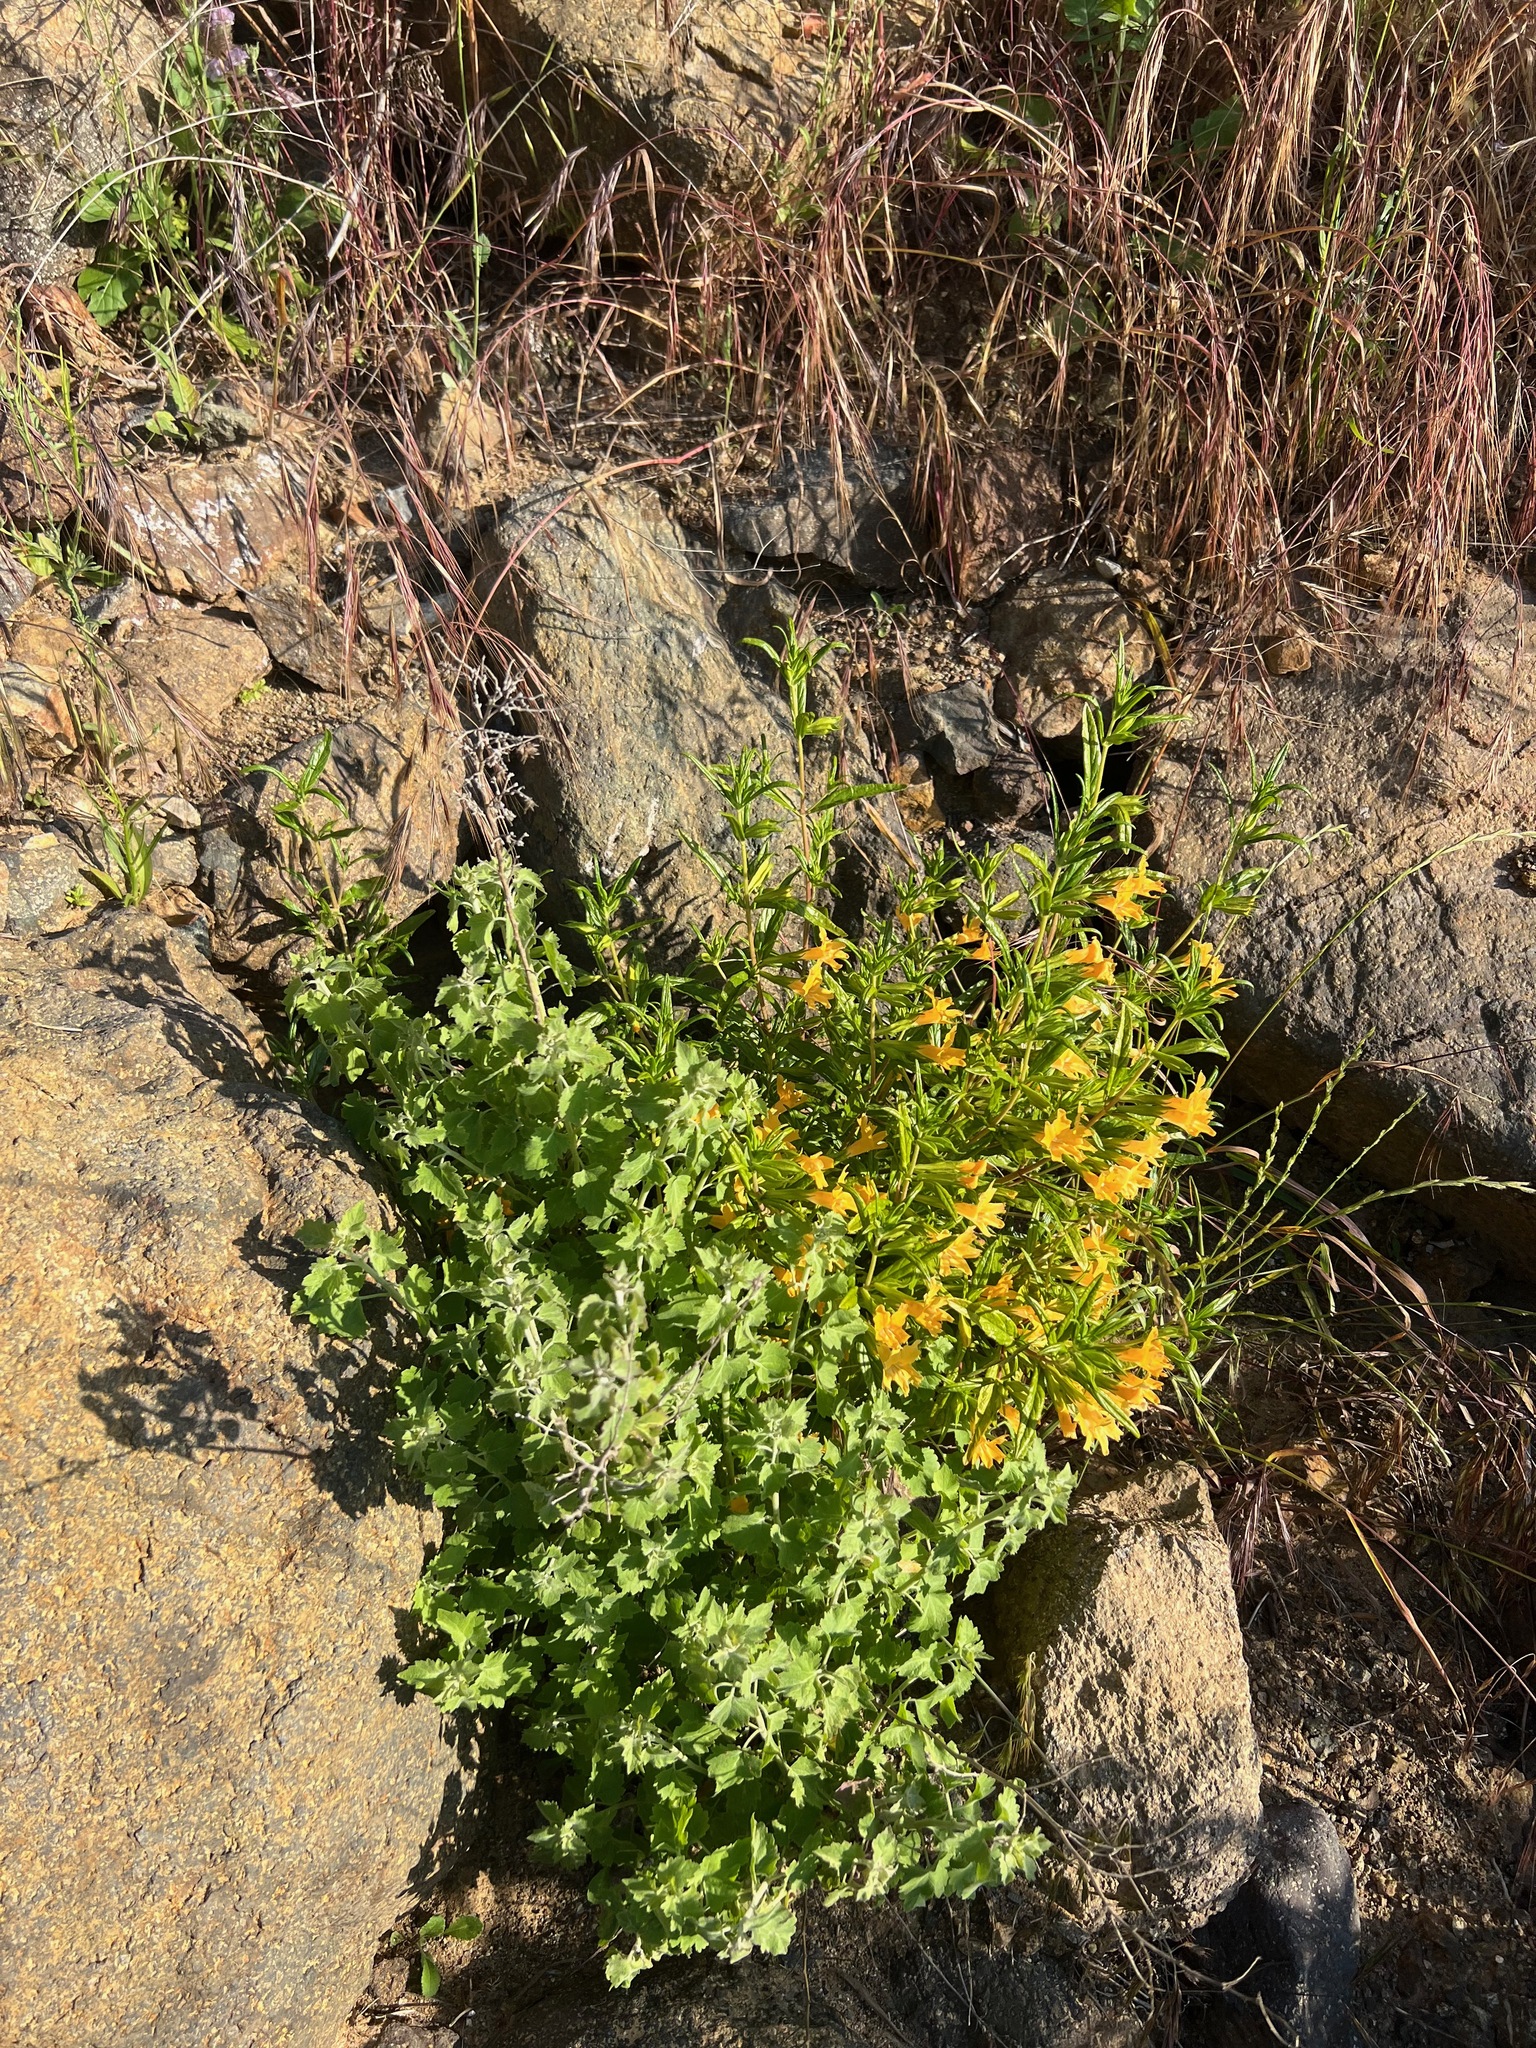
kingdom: Plantae
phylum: Tracheophyta
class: Magnoliopsida
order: Asterales
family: Asteraceae
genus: Brickellia
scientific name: Brickellia californica
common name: California brickellbush
